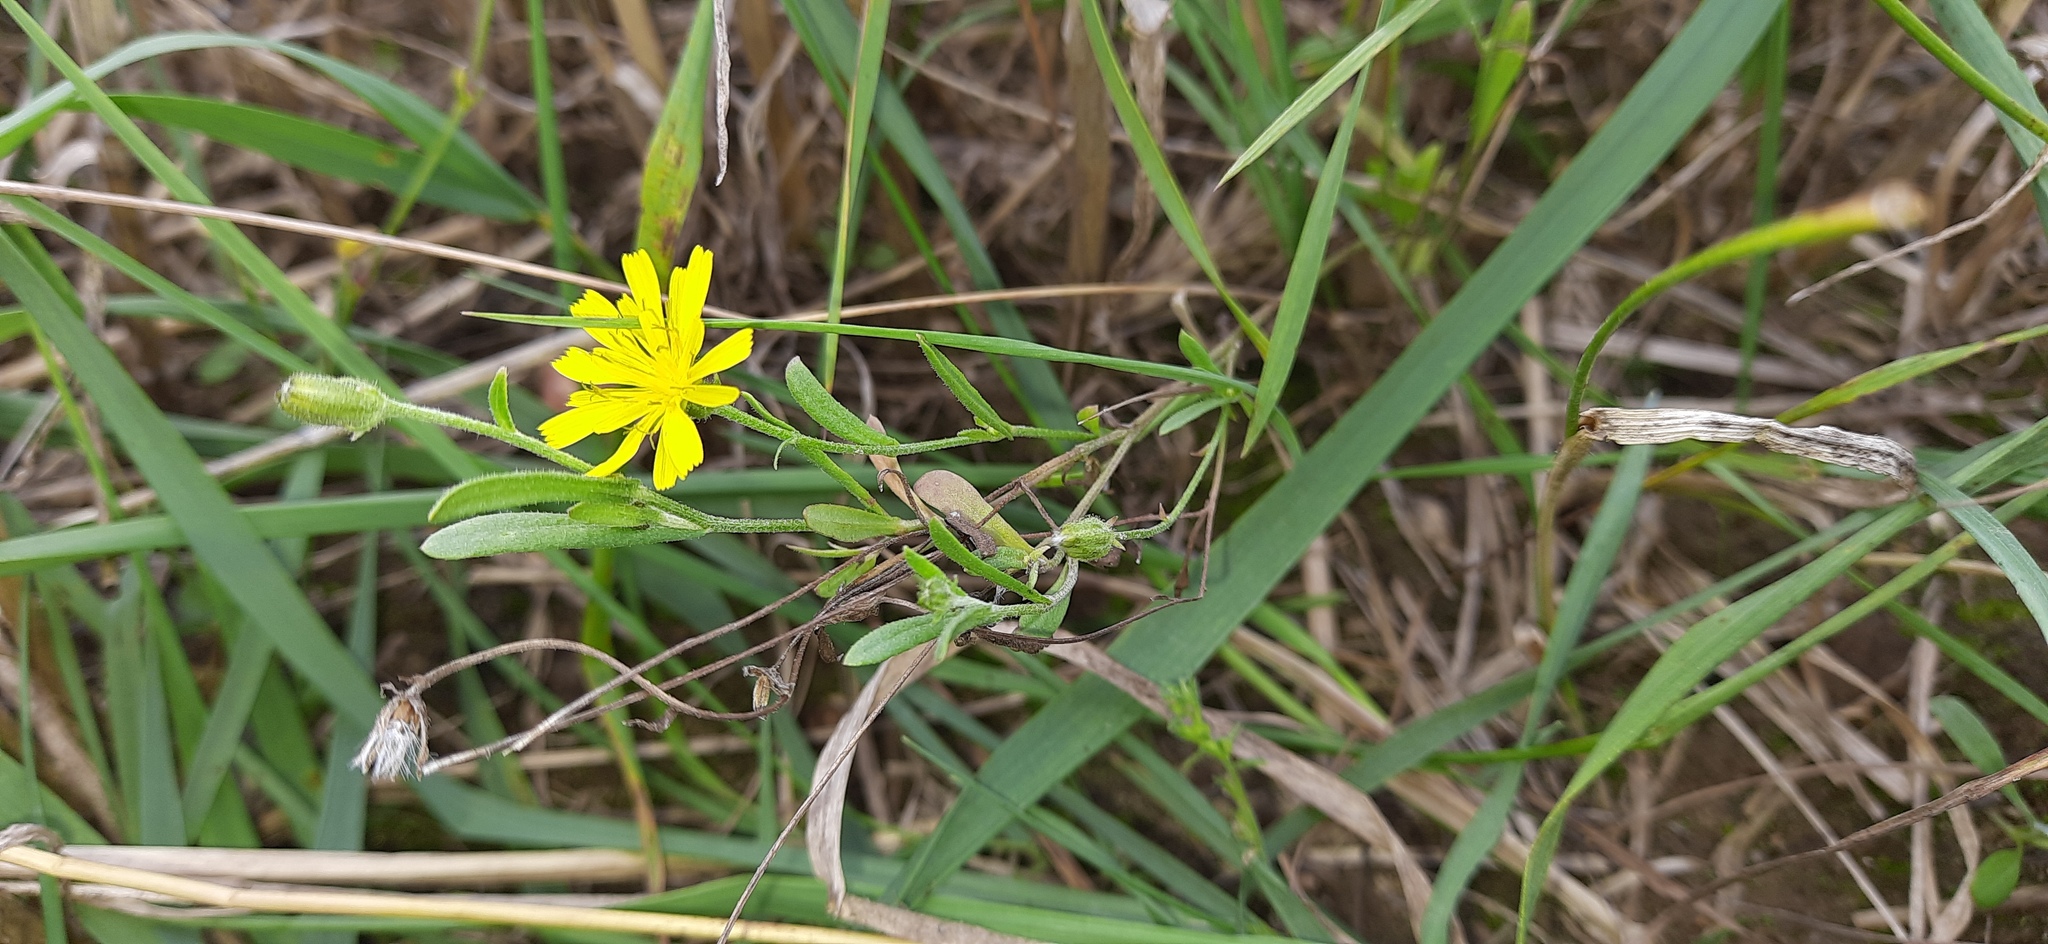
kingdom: Plantae
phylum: Tracheophyta
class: Magnoliopsida
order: Asterales
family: Asteraceae
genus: Crepis
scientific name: Crepis tectorum
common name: Narrow-leaved hawk's-beard
